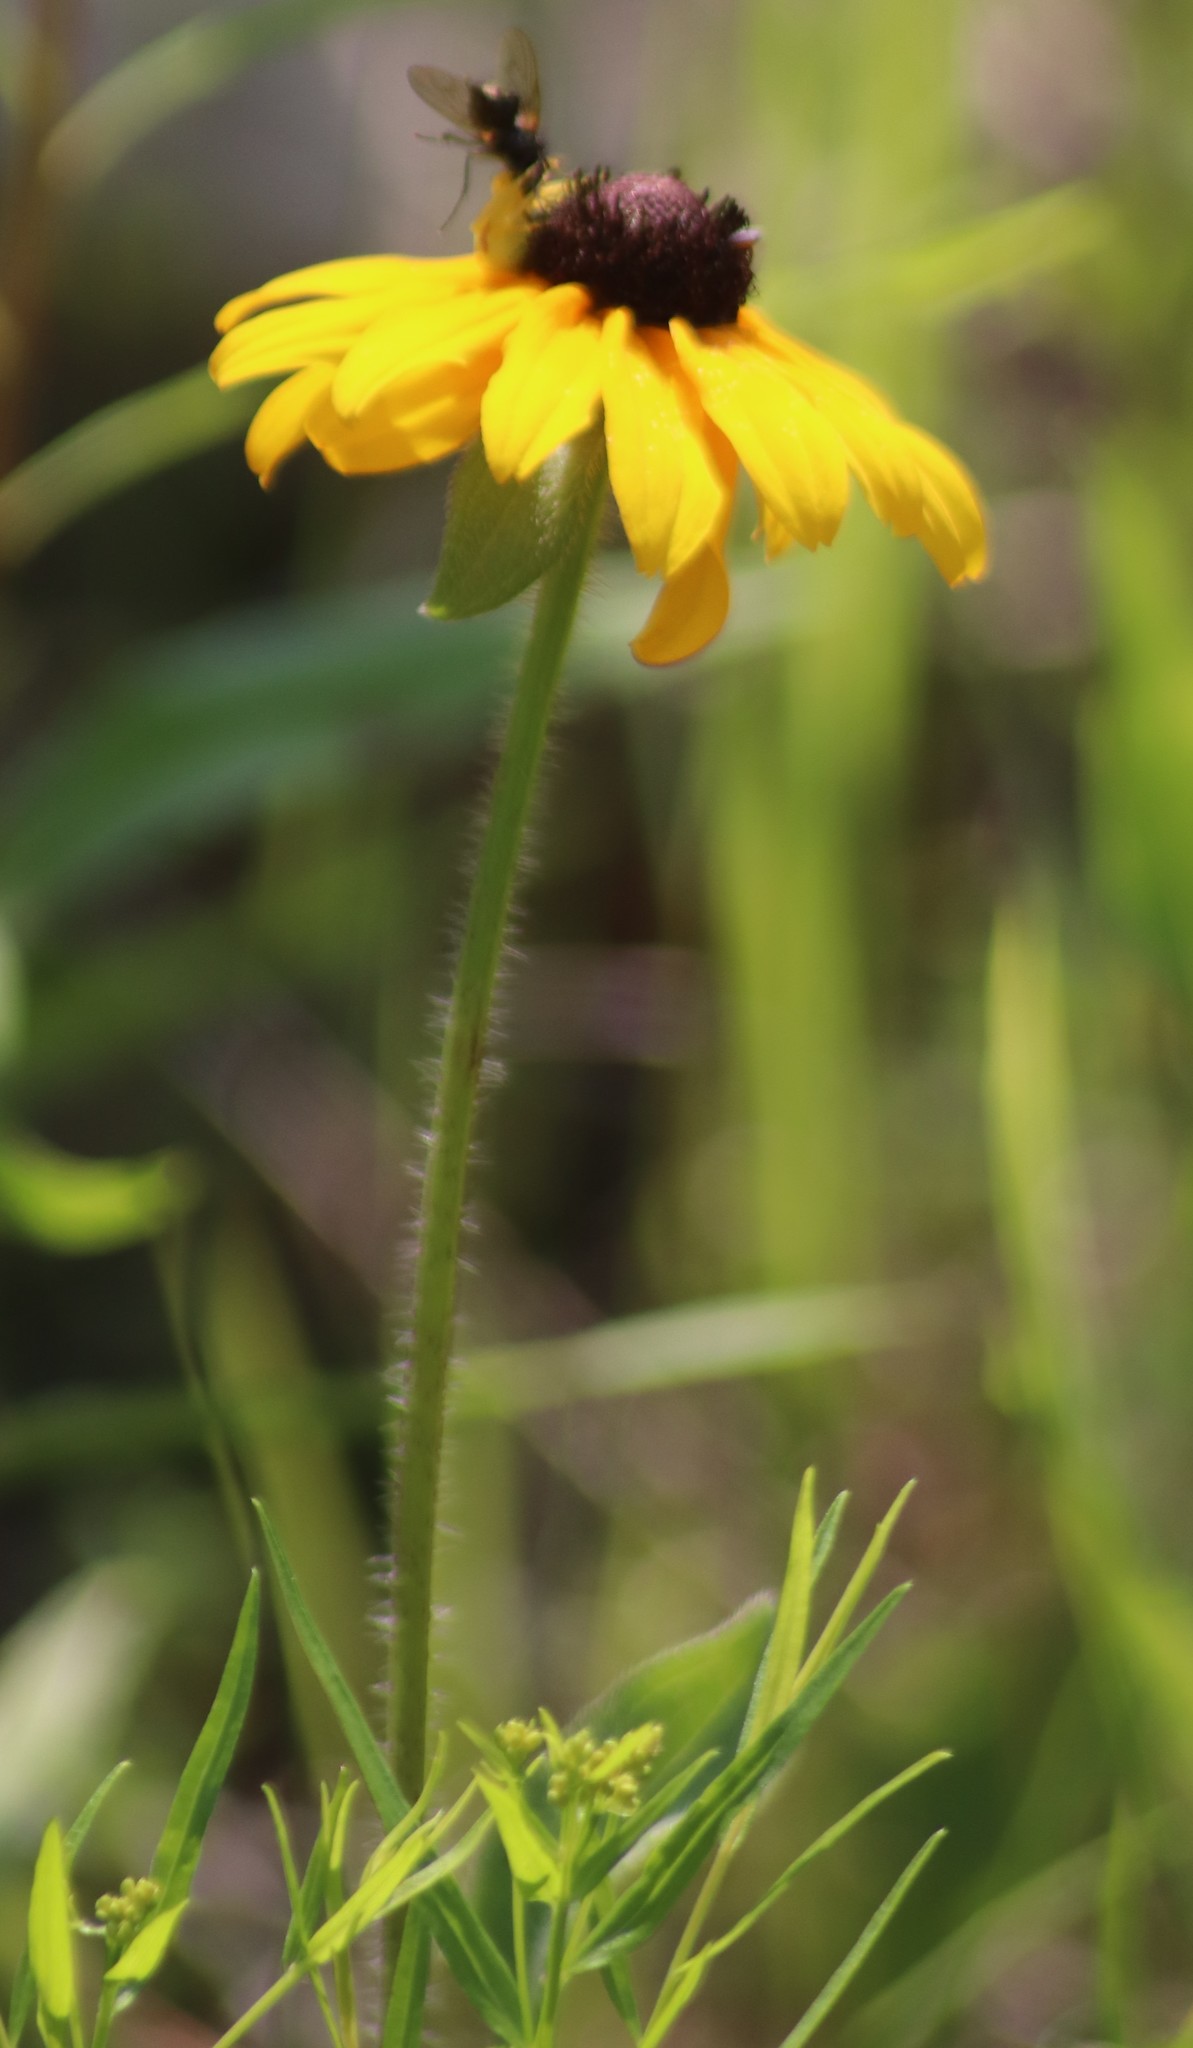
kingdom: Plantae
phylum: Tracheophyta
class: Magnoliopsida
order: Asterales
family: Asteraceae
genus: Rudbeckia
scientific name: Rudbeckia hirta
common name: Black-eyed-susan
